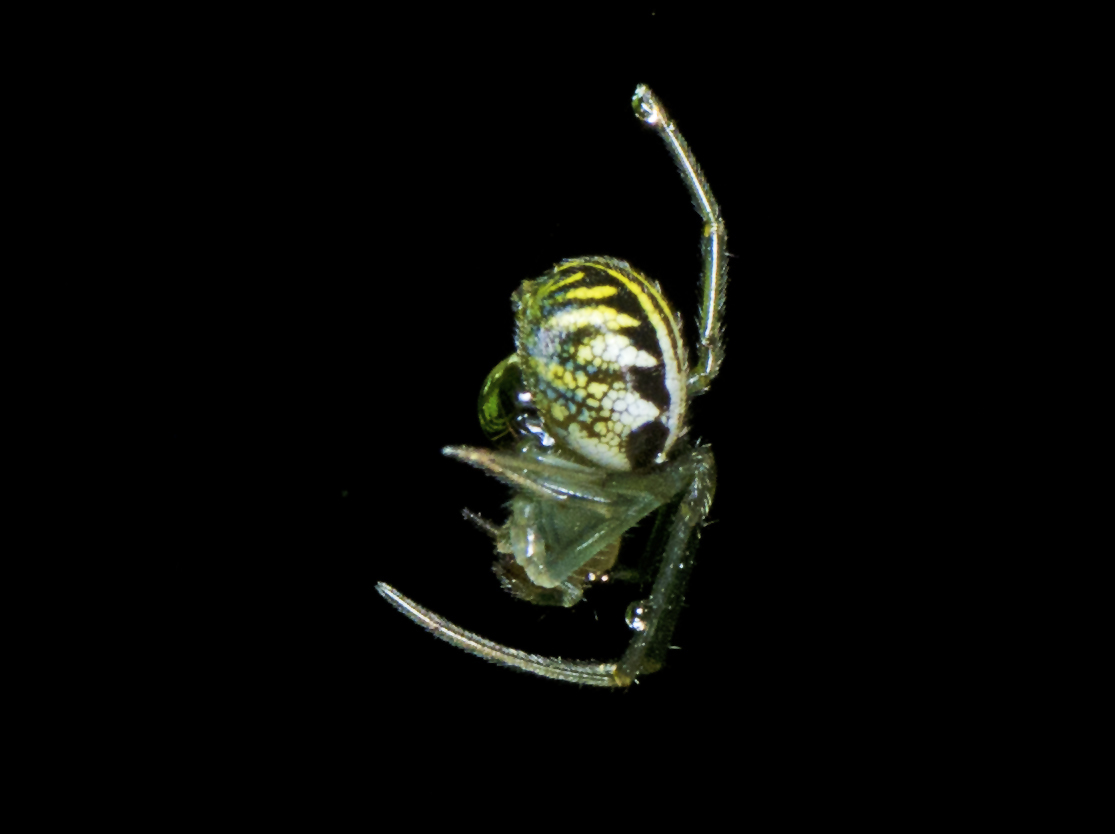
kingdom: Animalia
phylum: Arthropoda
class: Arachnida
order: Araneae
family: Araneidae
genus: Phonognatha
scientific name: Phonognatha graeffei
